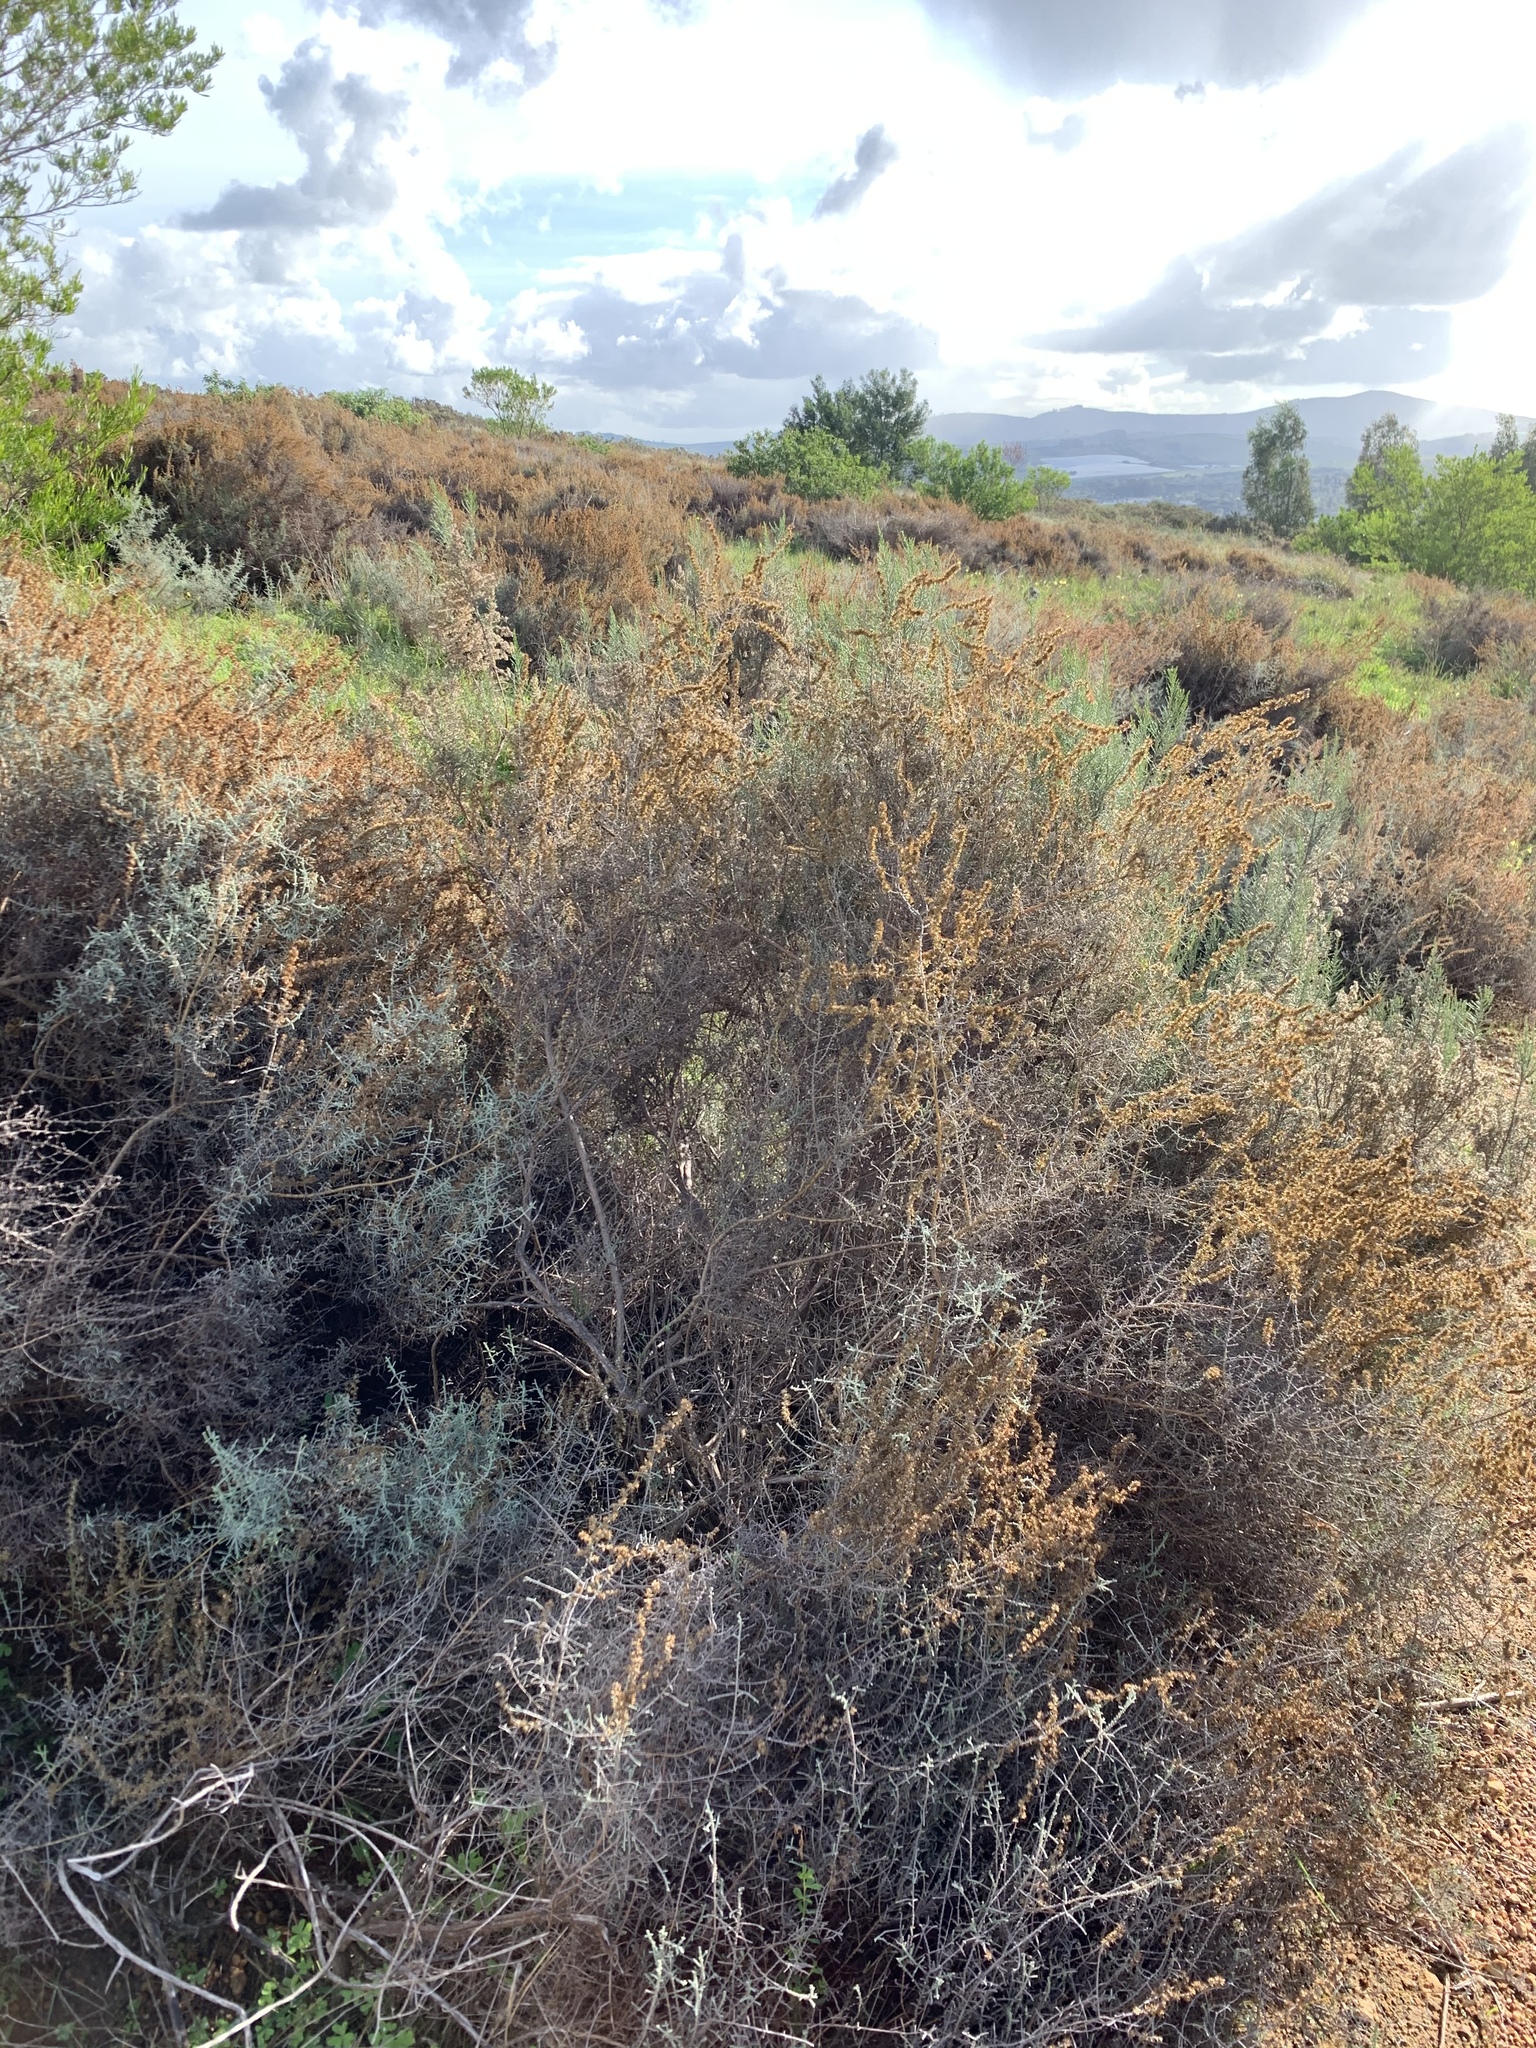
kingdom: Plantae
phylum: Tracheophyta
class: Magnoliopsida
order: Asterales
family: Asteraceae
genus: Seriphium
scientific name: Seriphium plumosum
